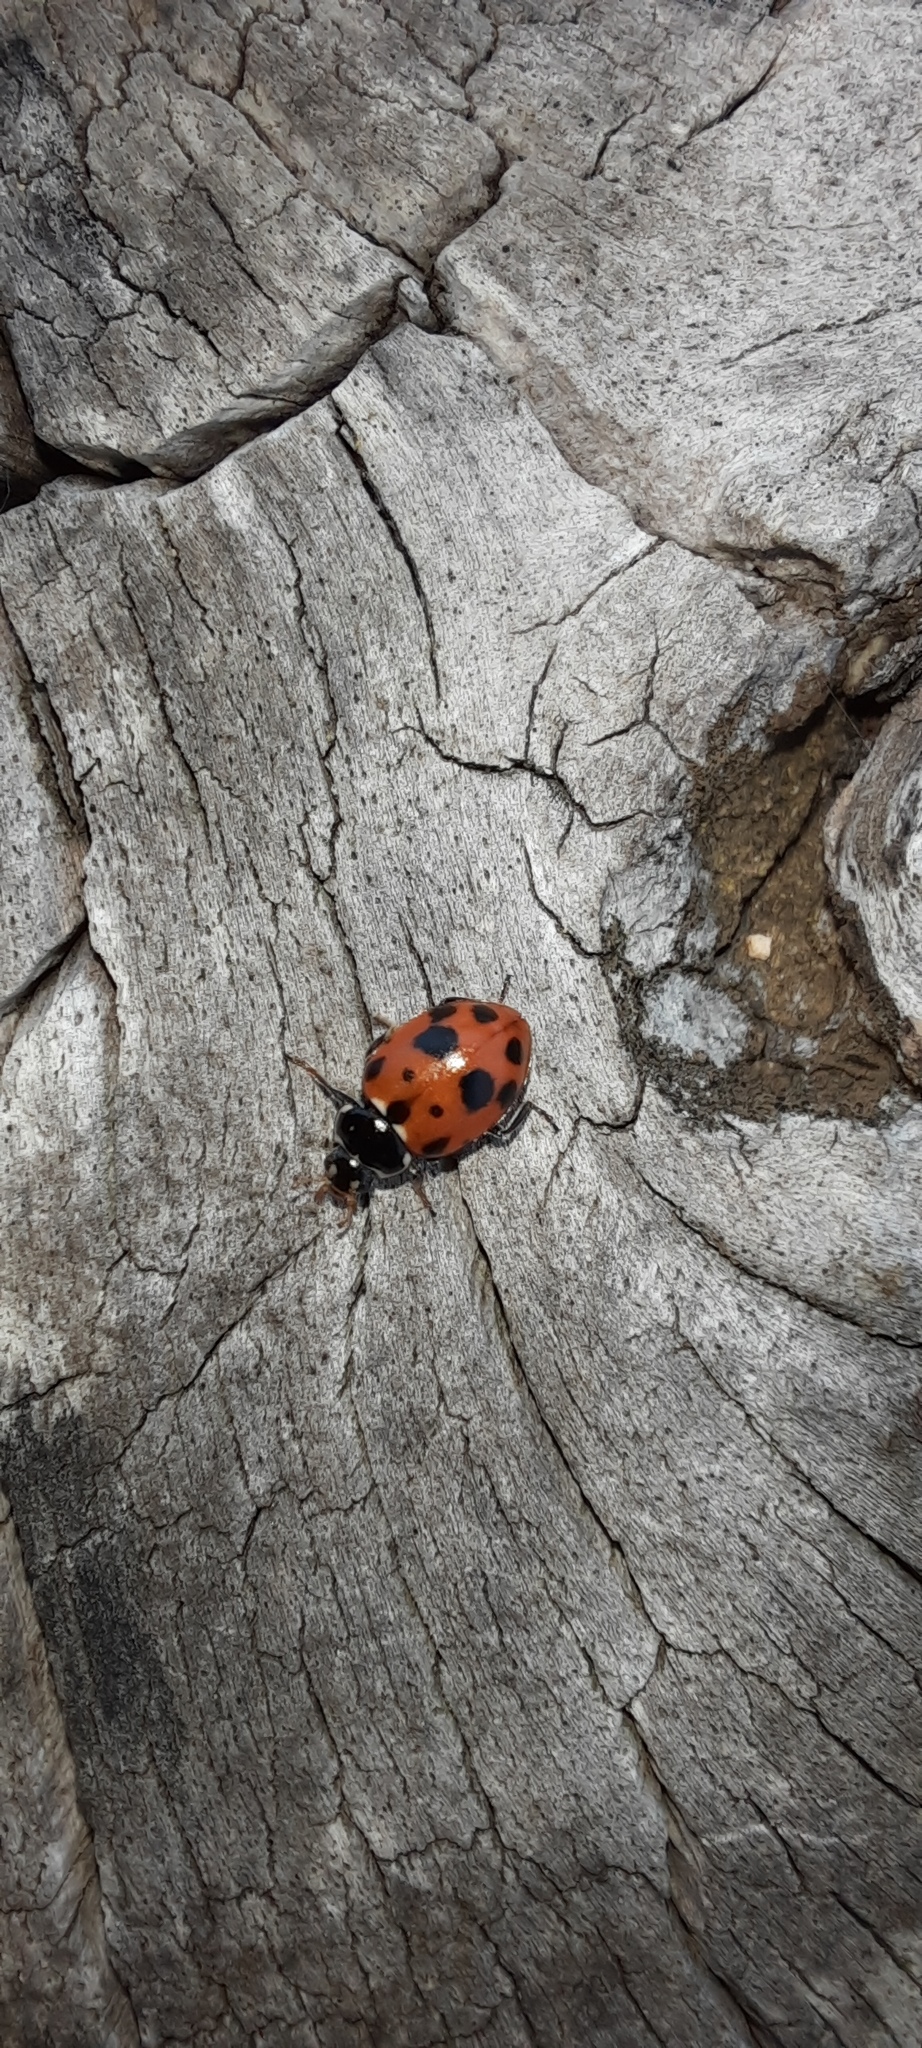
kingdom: Animalia
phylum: Arthropoda
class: Insecta
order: Coleoptera
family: Coccinellidae
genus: Hippodamia
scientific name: Hippodamia variegata
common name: Ladybird beetle
